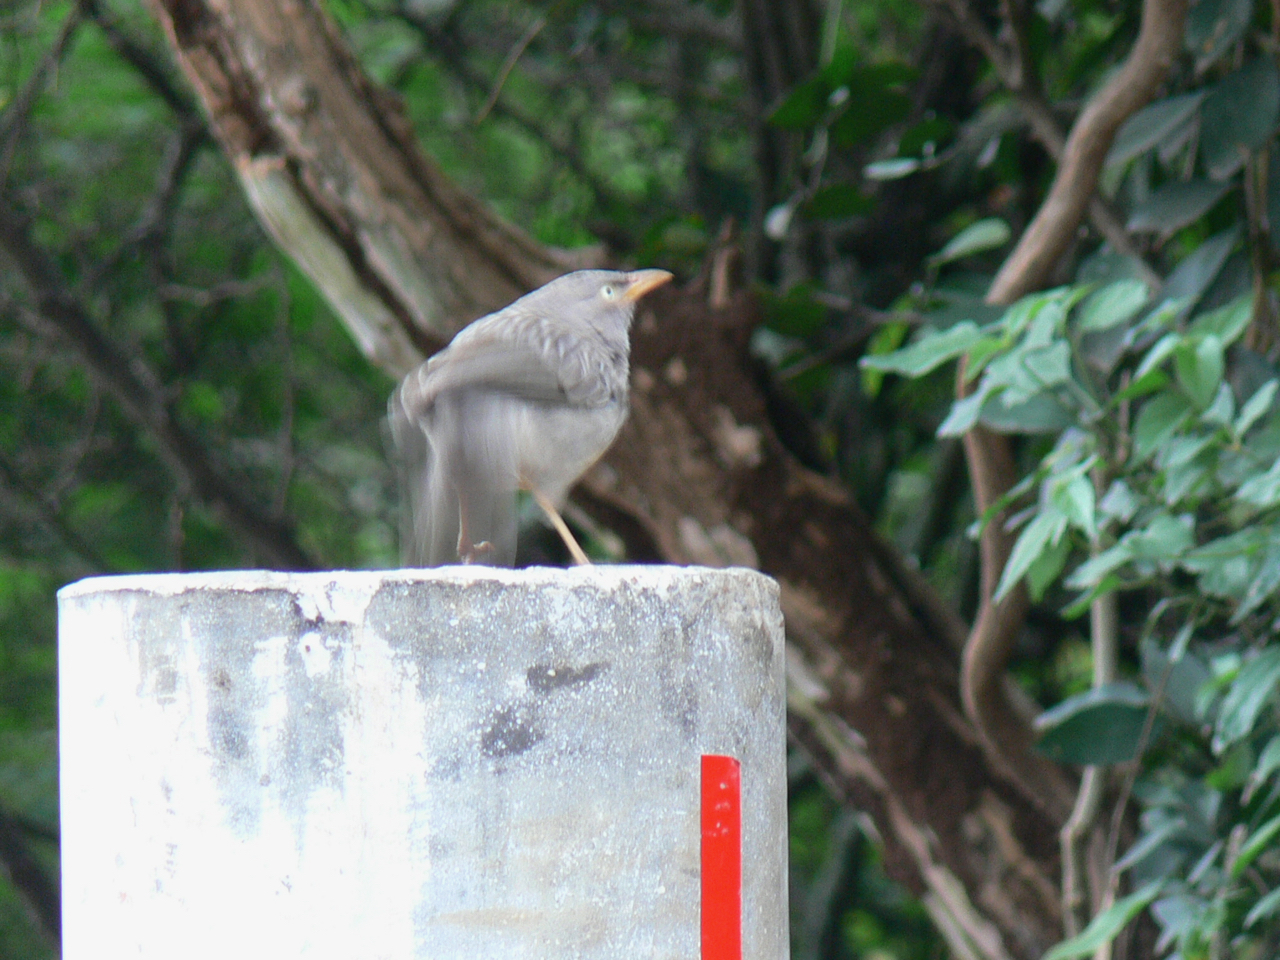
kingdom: Animalia
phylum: Chordata
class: Aves
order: Passeriformes
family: Leiothrichidae
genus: Turdoides
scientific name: Turdoides striata
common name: Jungle babbler
